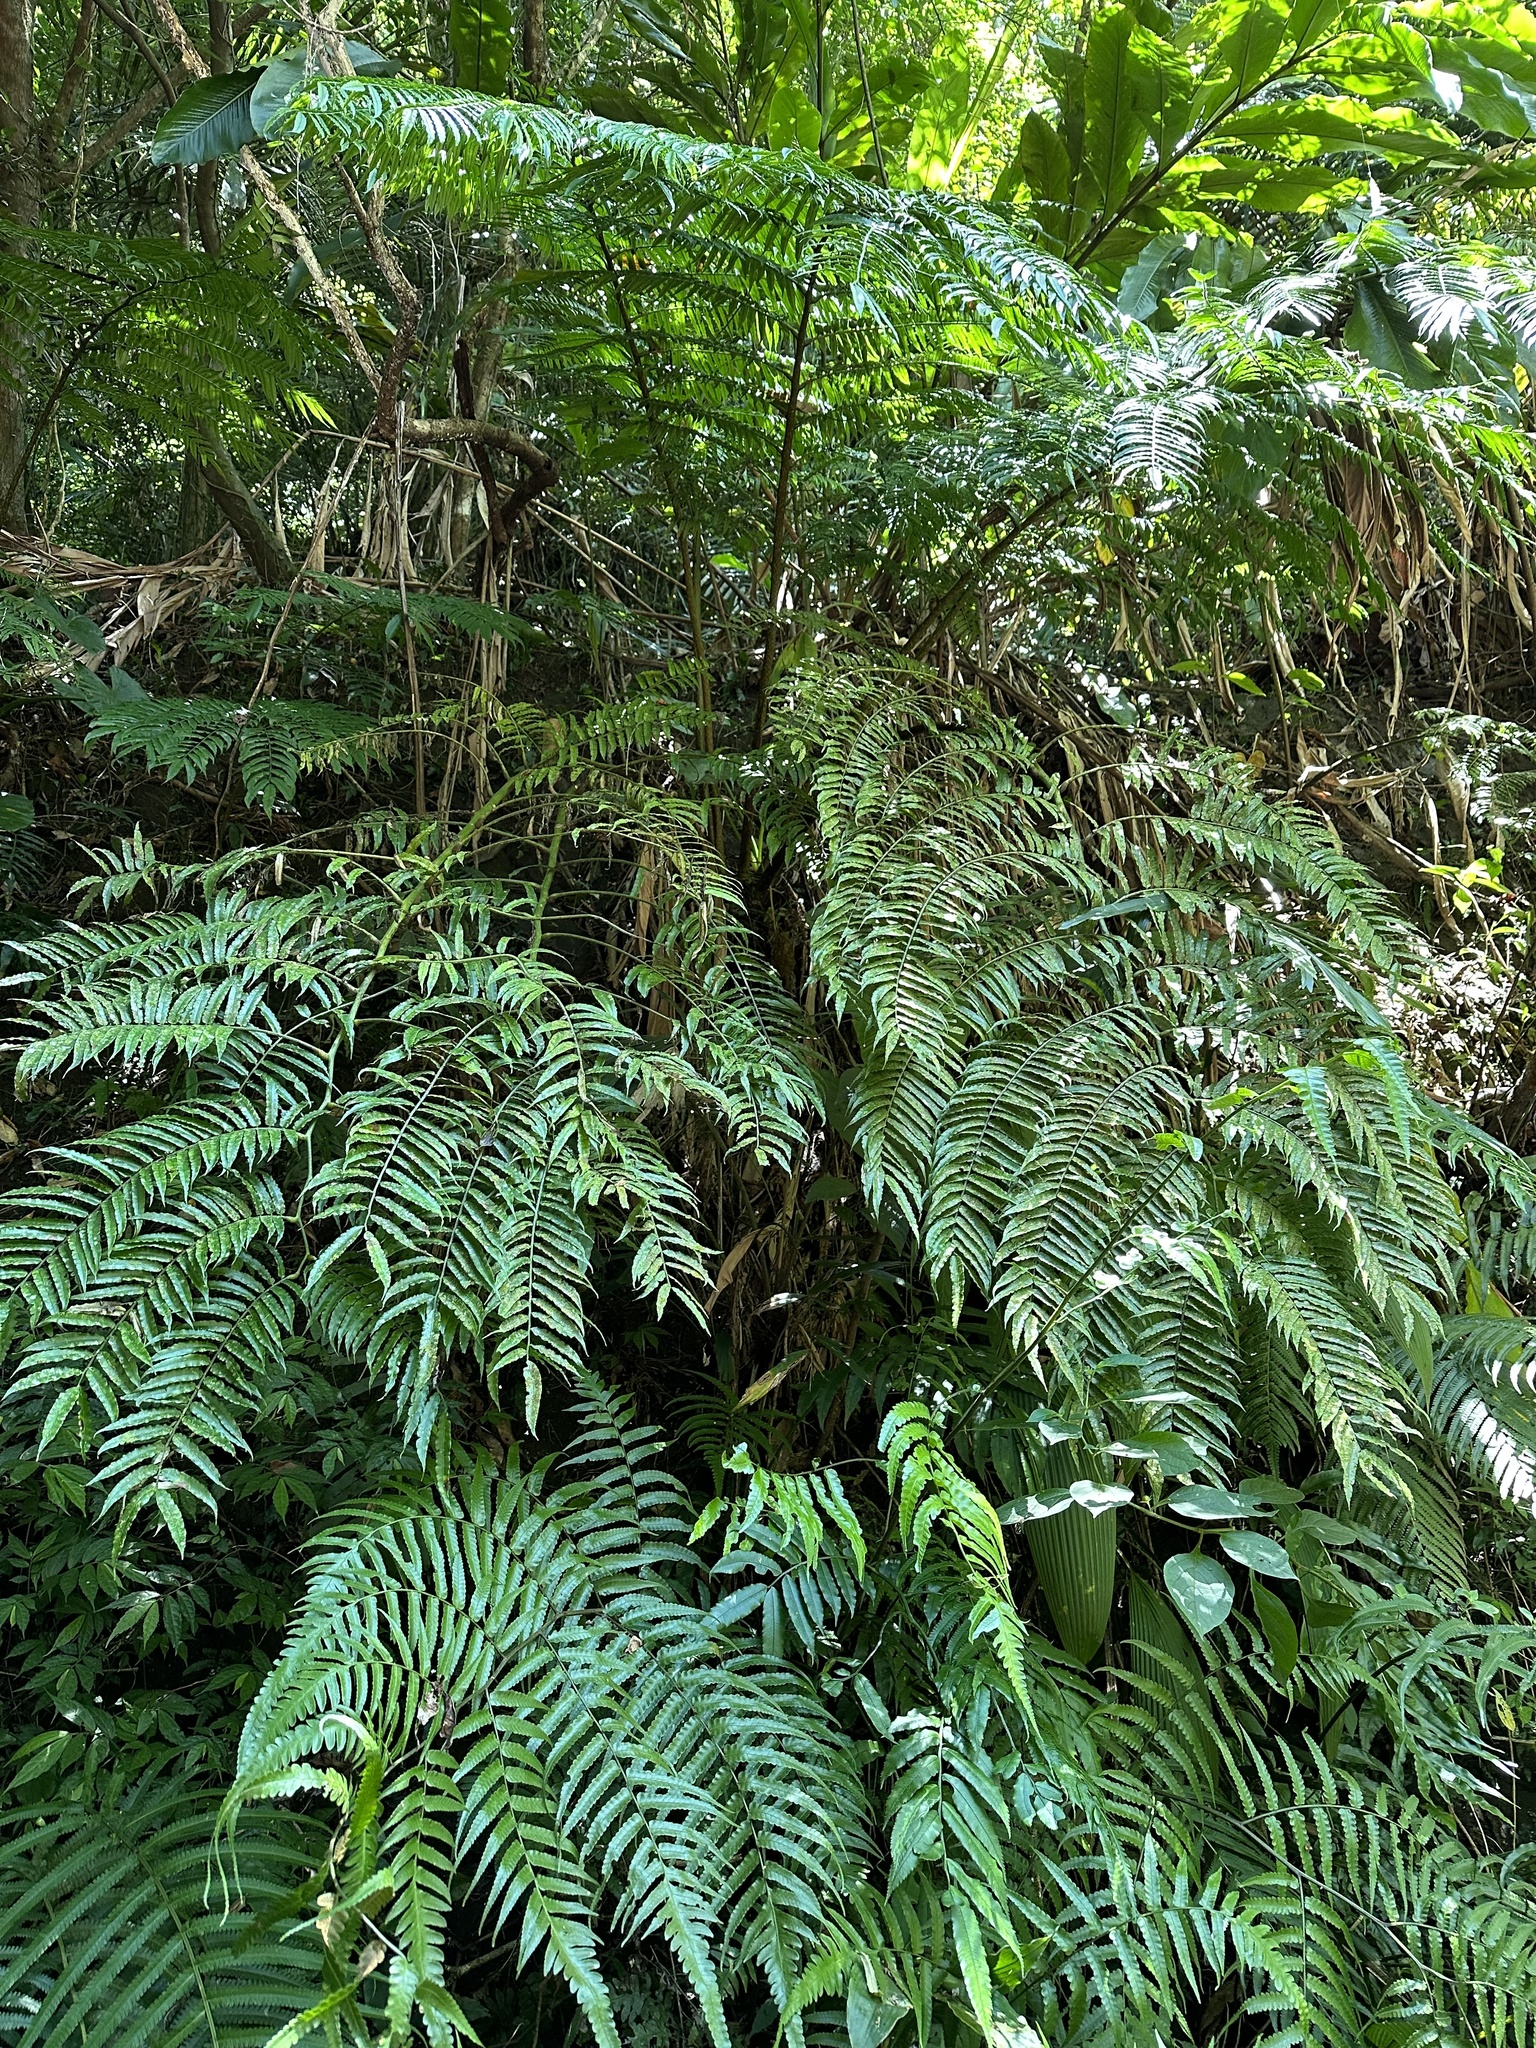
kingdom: Plantae
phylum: Tracheophyta
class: Polypodiopsida
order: Marattiales
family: Marattiaceae
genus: Angiopteris
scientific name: Angiopteris lygodiifolia
